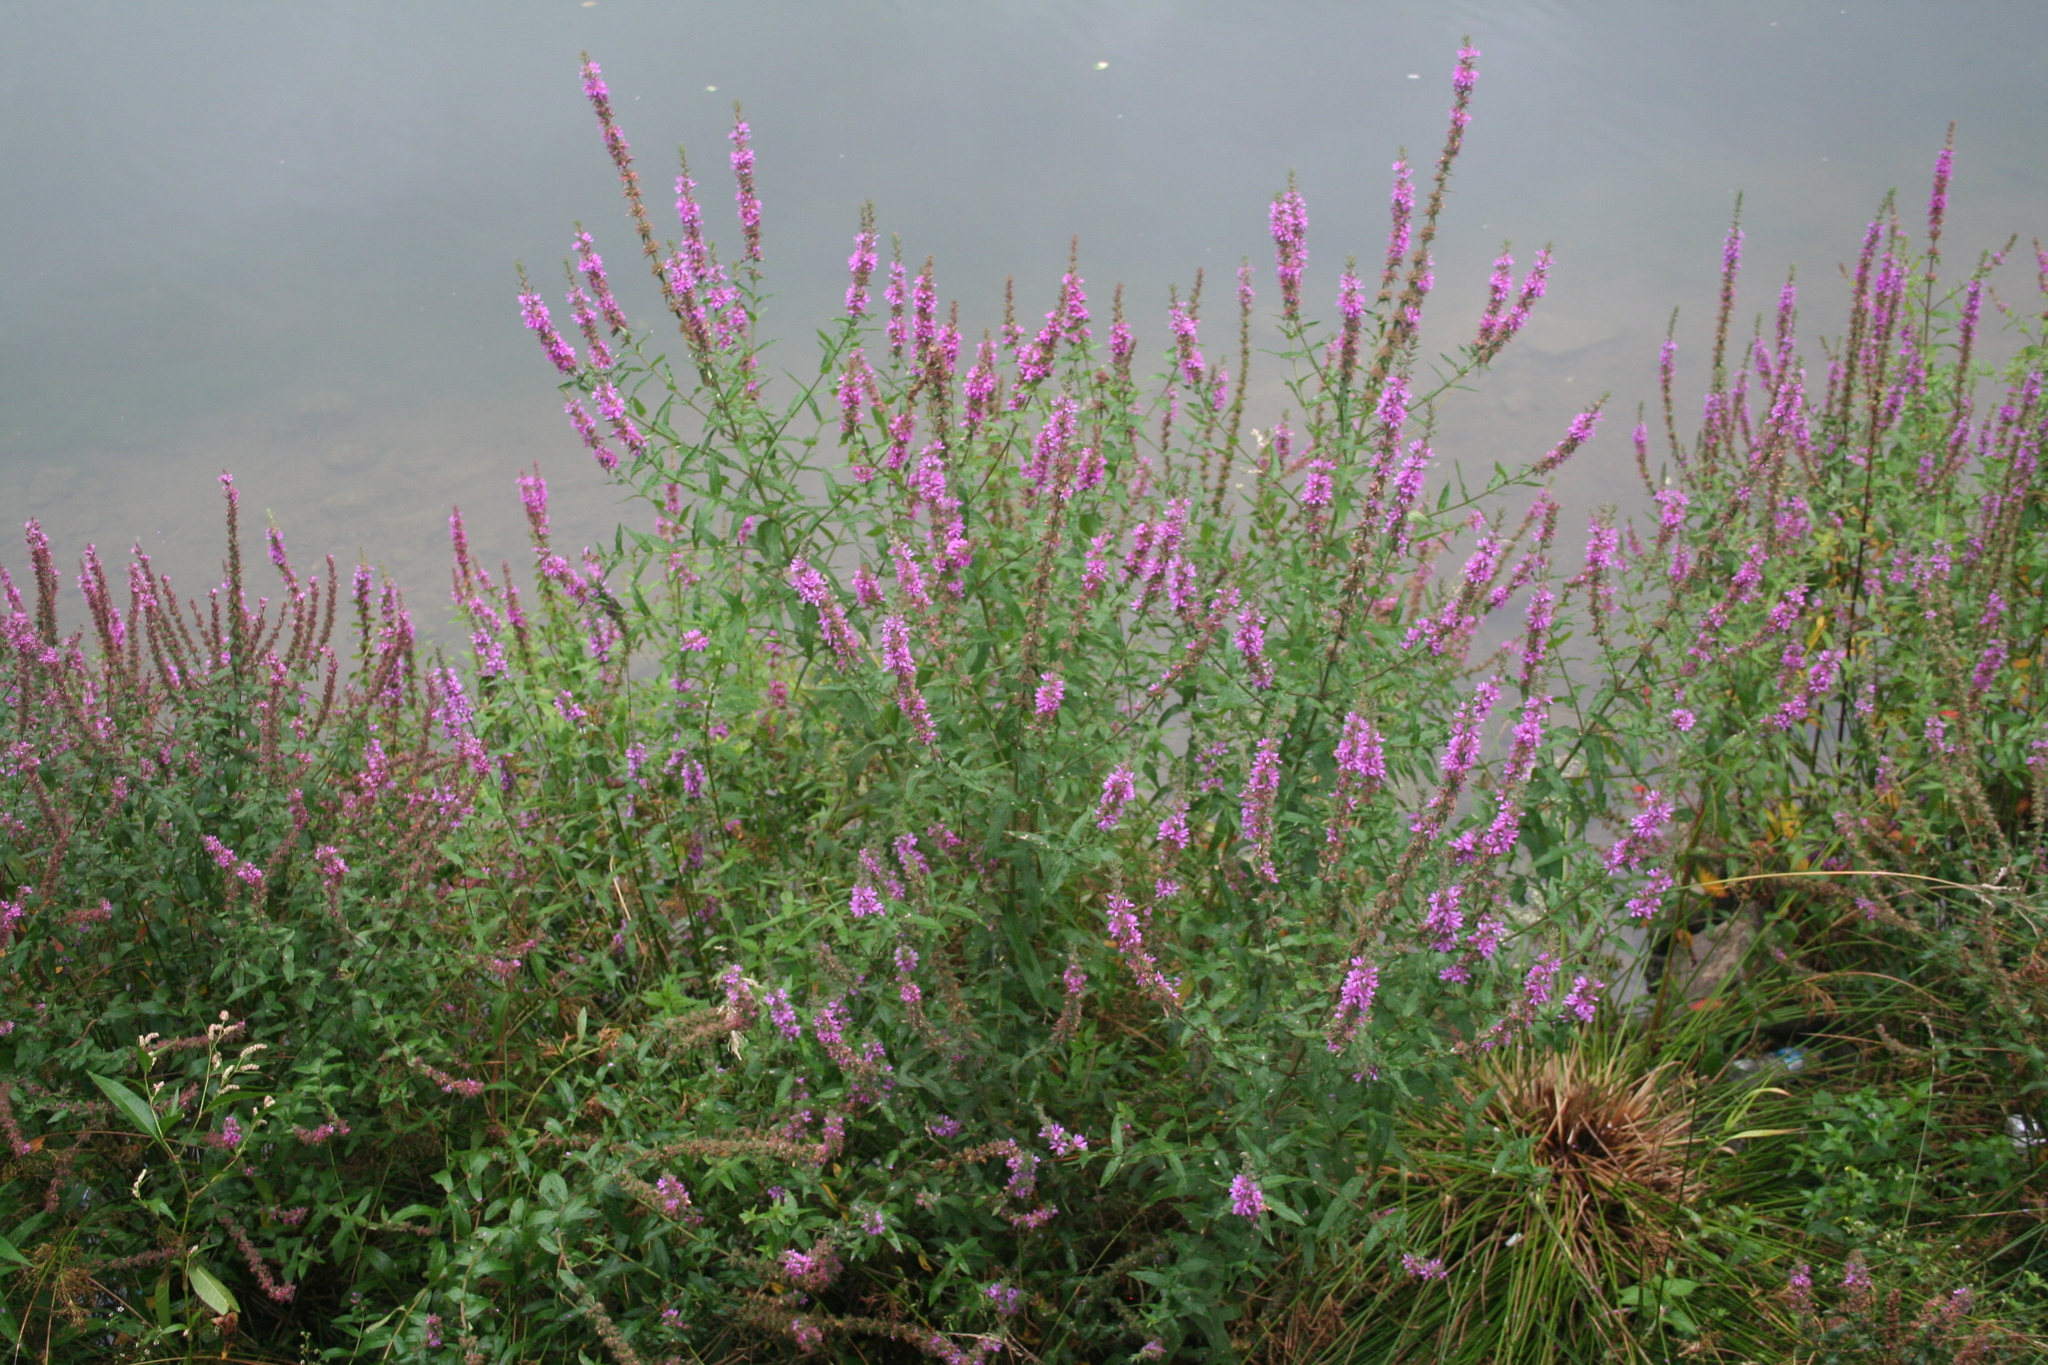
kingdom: Plantae
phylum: Tracheophyta
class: Magnoliopsida
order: Myrtales
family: Lythraceae
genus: Lythrum
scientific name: Lythrum salicaria
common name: Purple loosestrife
